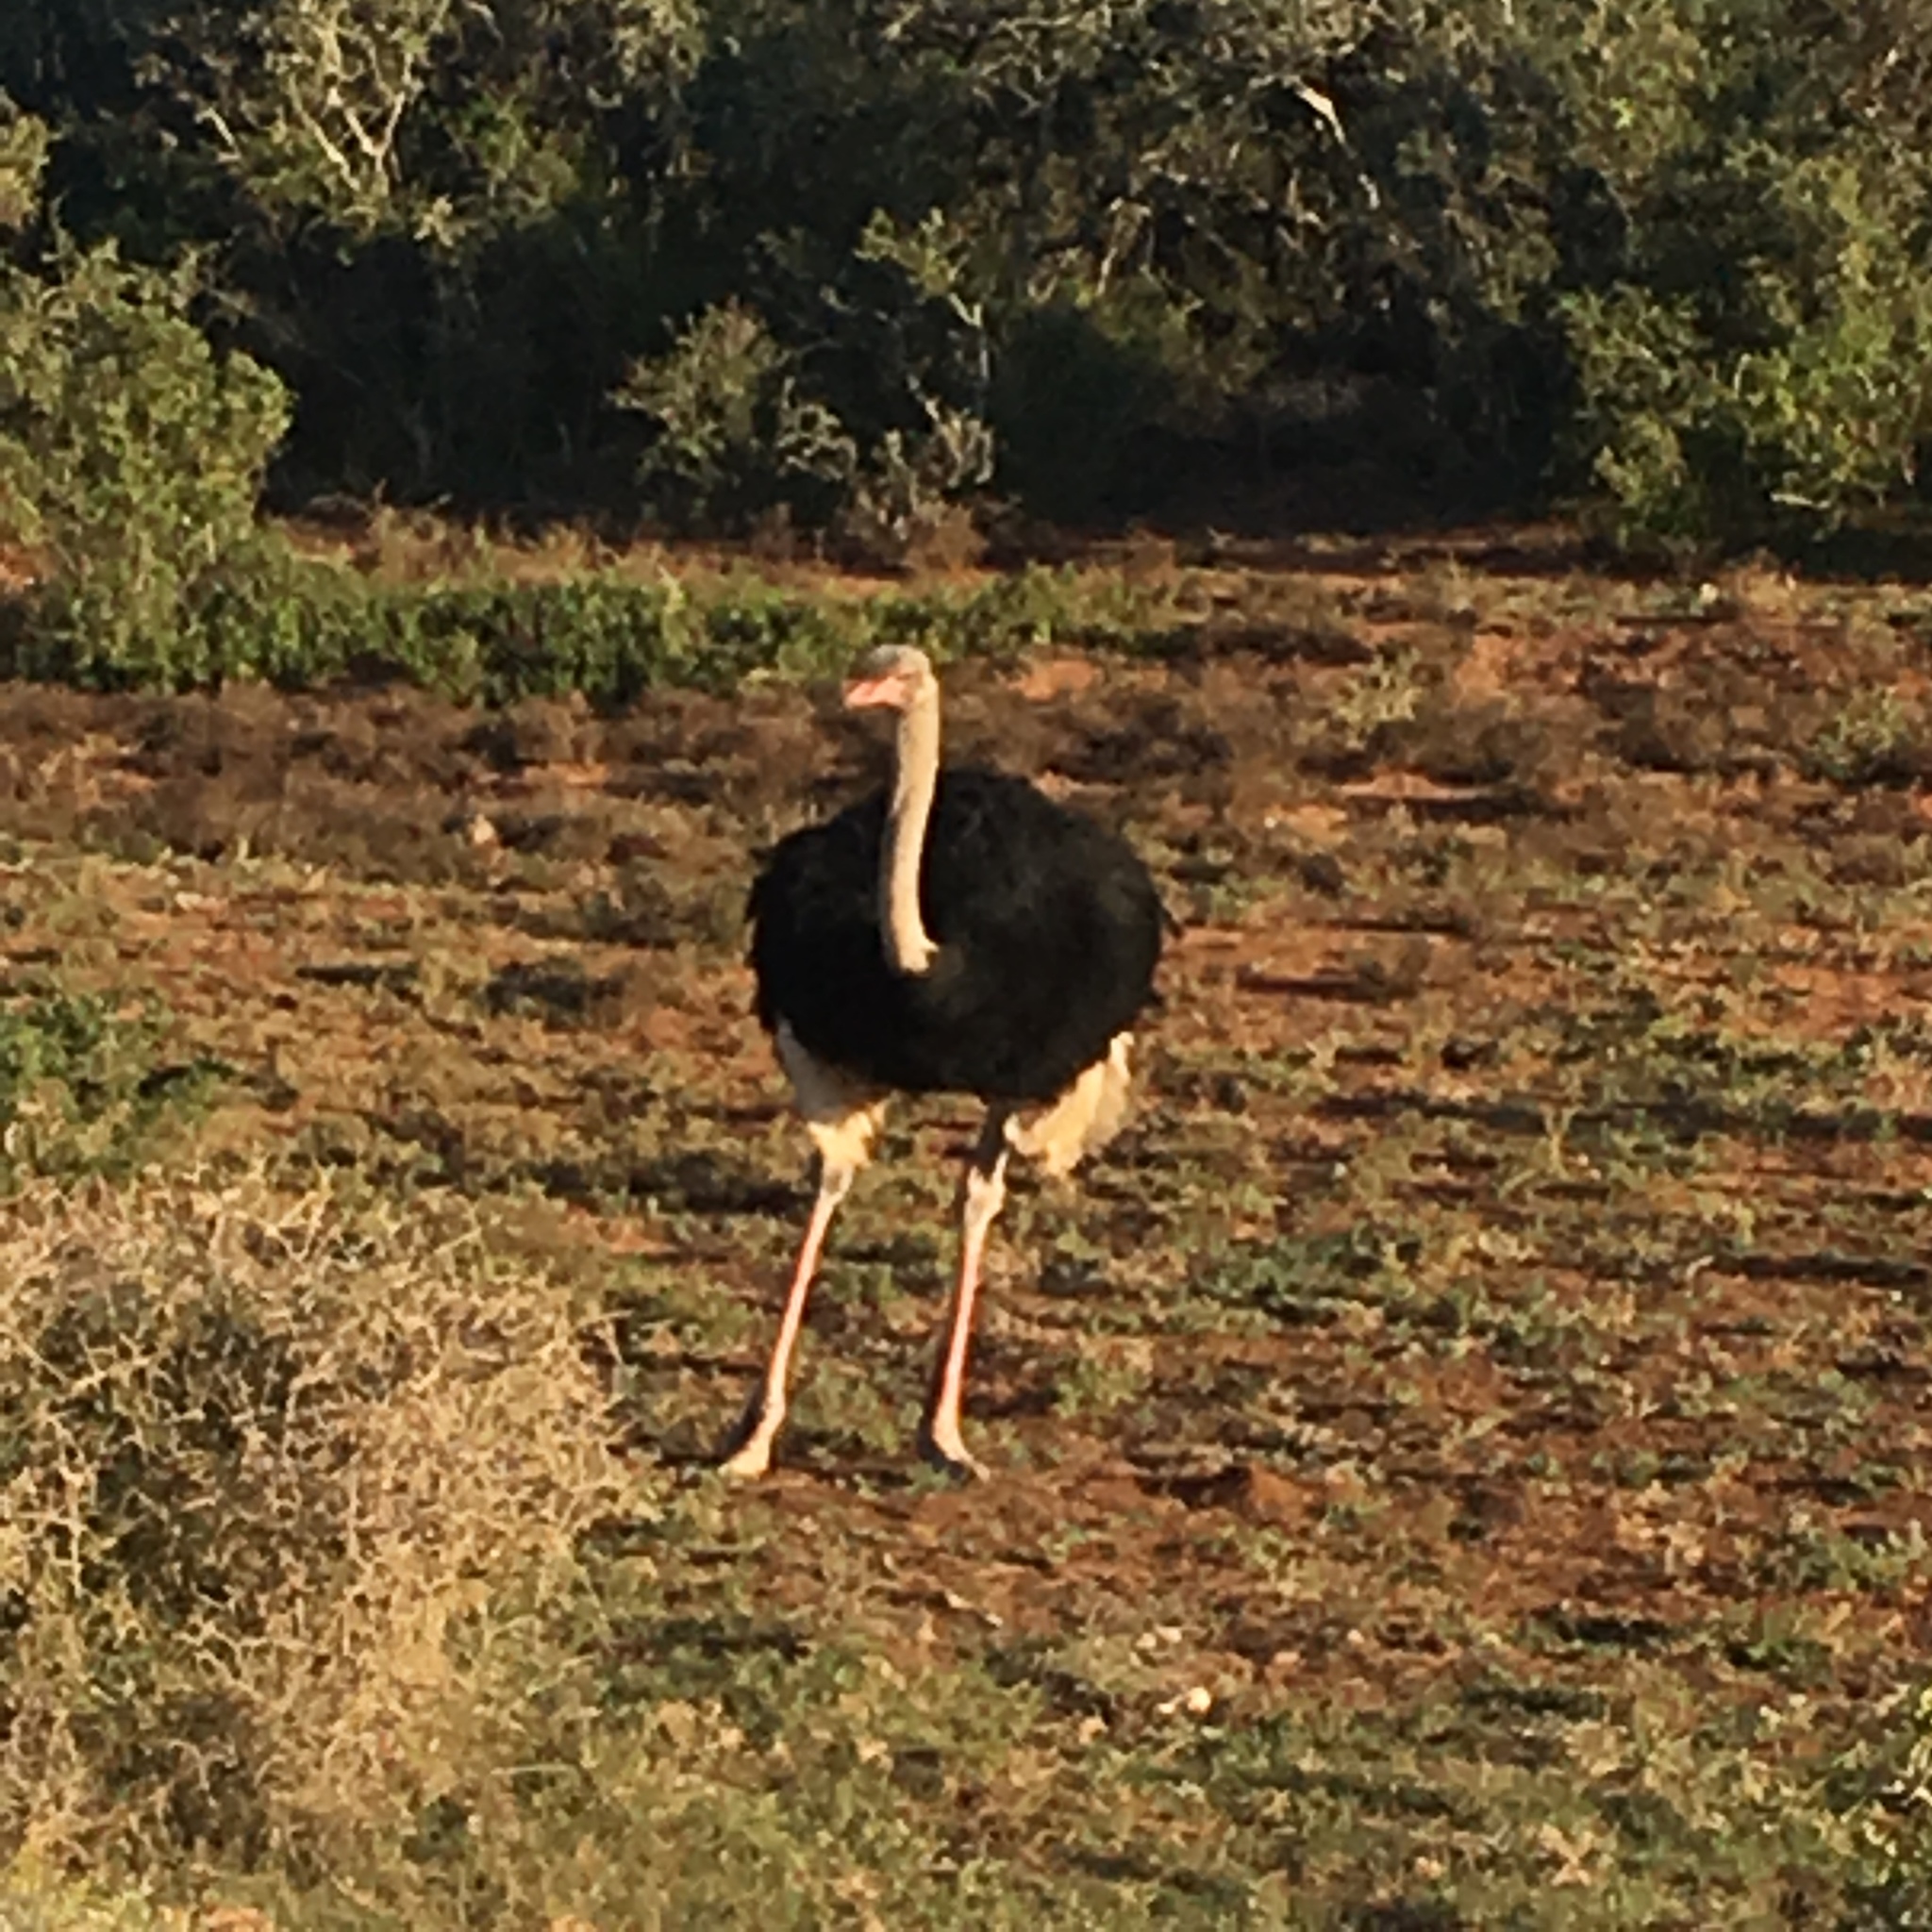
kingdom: Animalia
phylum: Chordata
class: Aves
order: Struthioniformes
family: Struthionidae
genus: Struthio
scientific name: Struthio camelus
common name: Common ostrich
